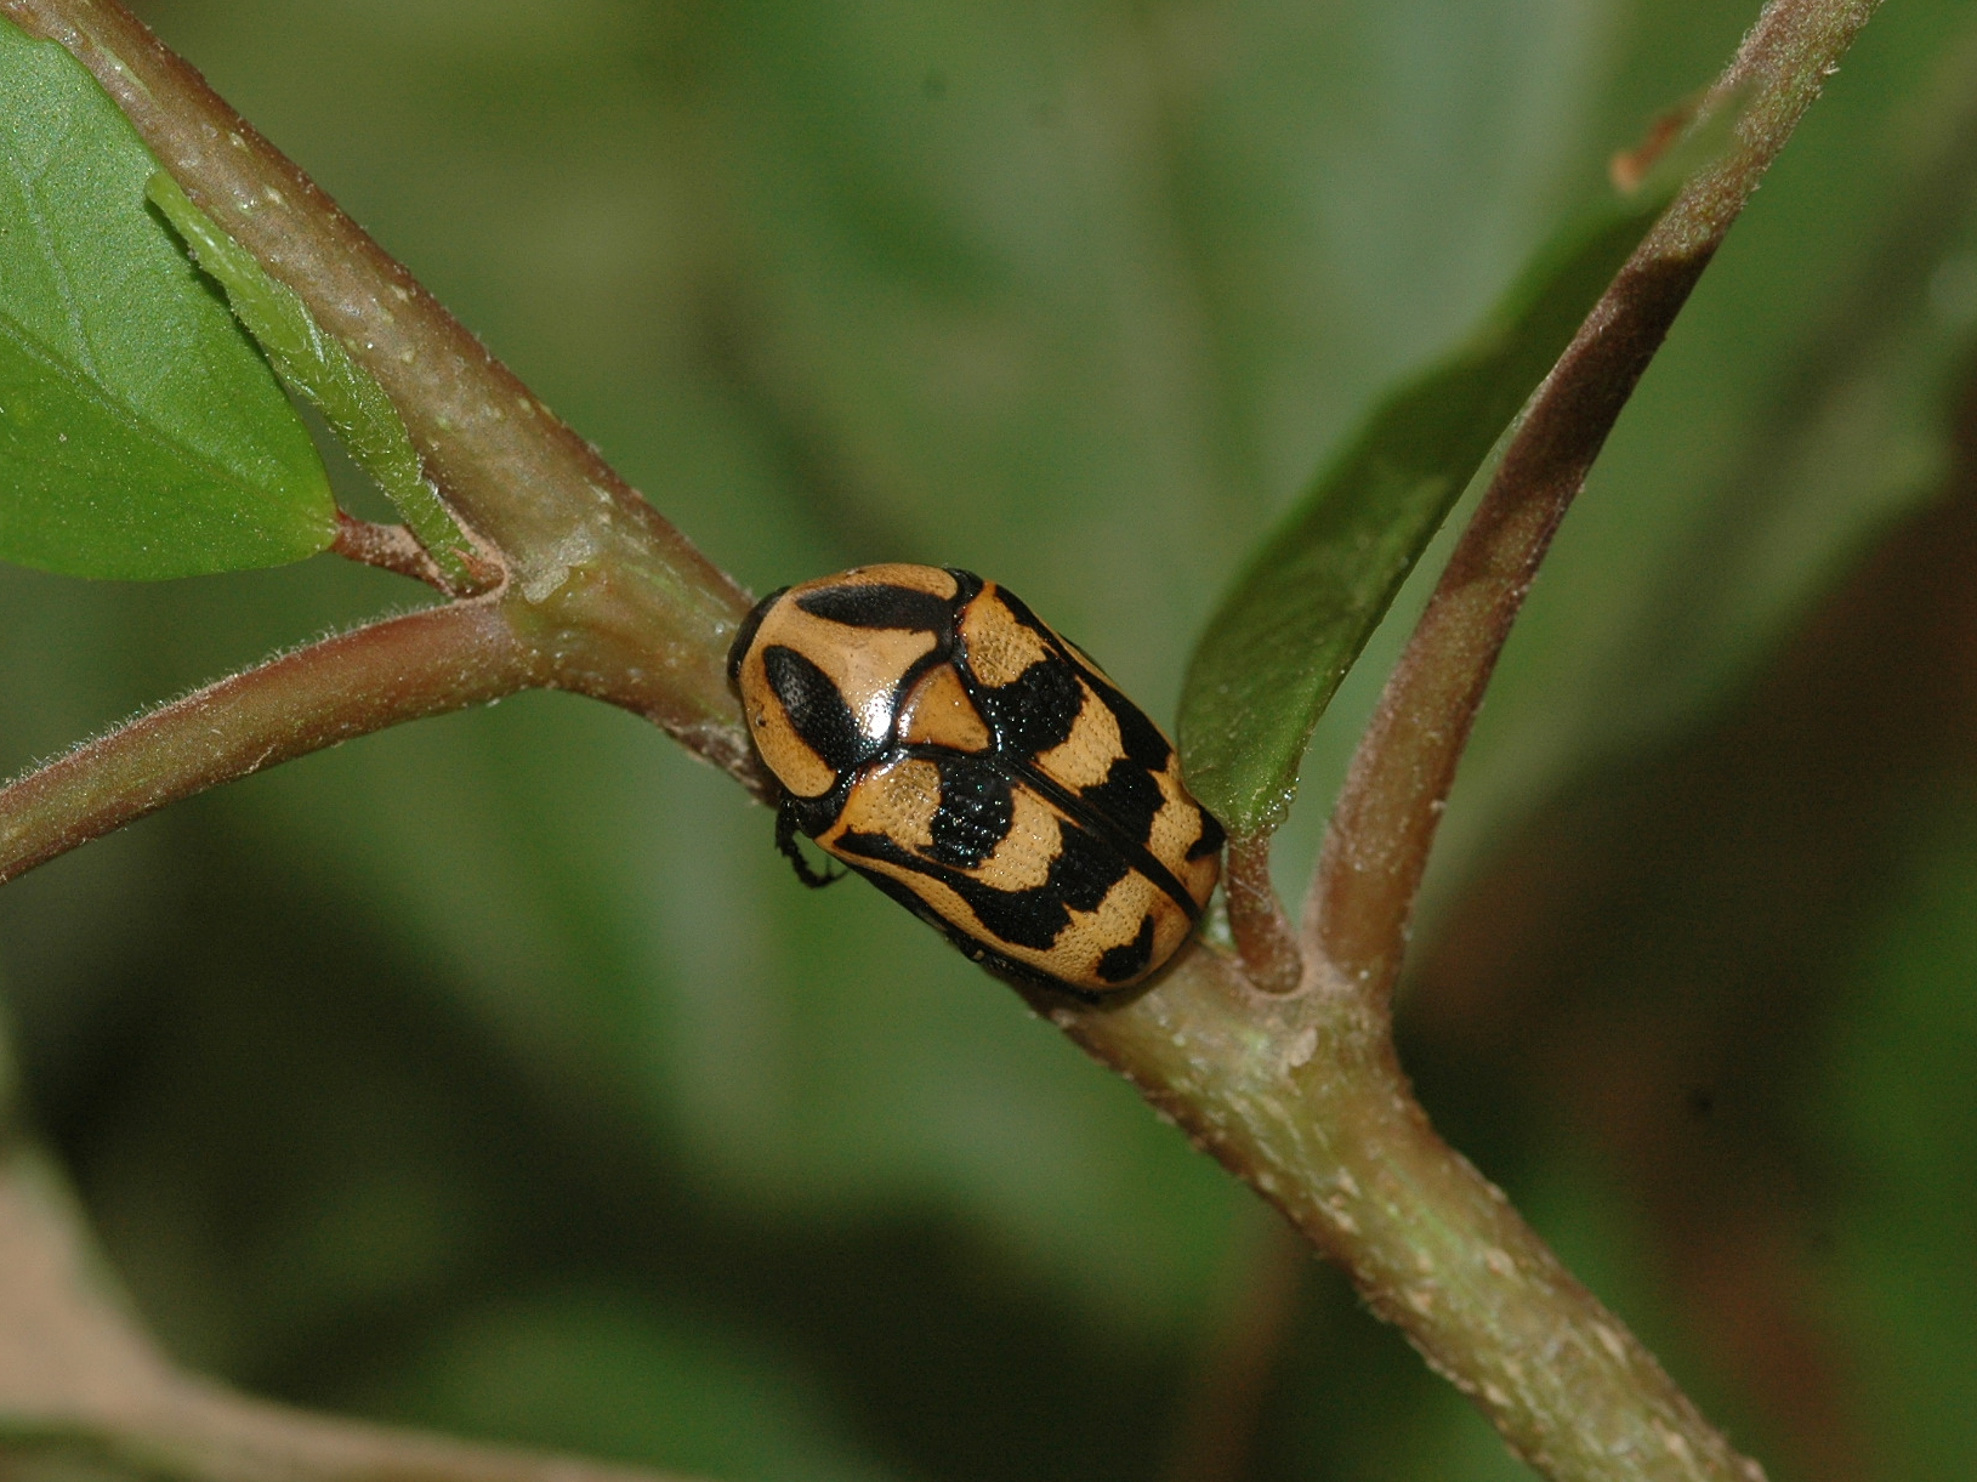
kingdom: Animalia
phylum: Arthropoda
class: Insecta
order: Coleoptera
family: Scarabaeidae
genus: Pachnoda
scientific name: Pachnoda interrupta
